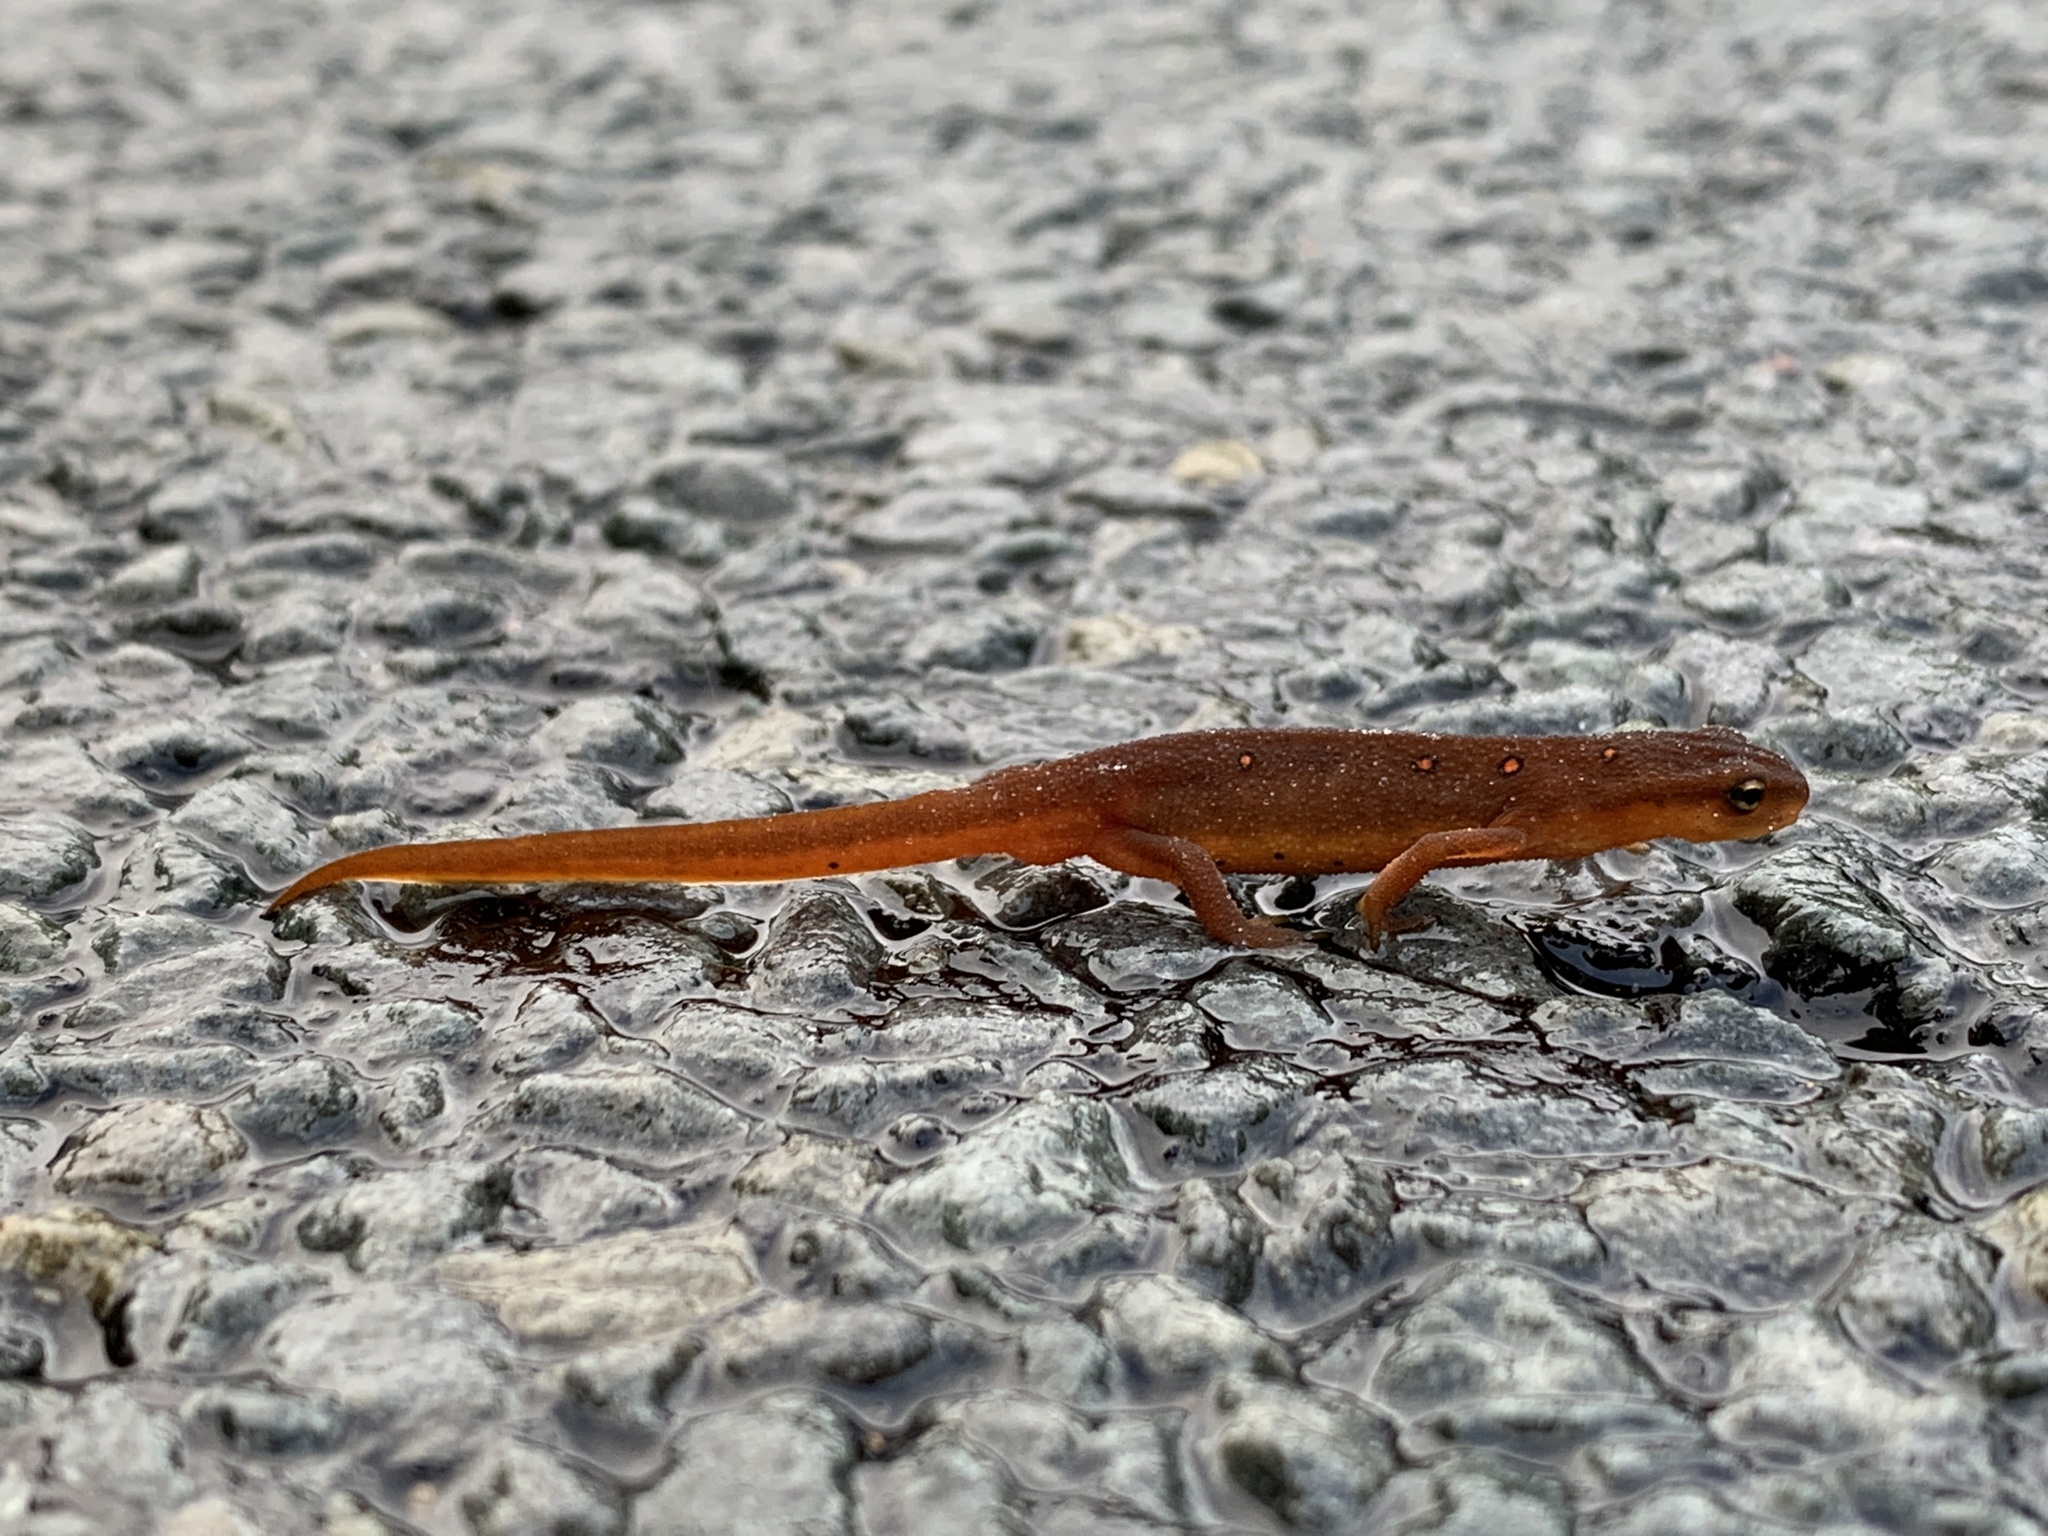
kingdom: Animalia
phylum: Chordata
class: Amphibia
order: Caudata
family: Salamandridae
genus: Notophthalmus
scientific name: Notophthalmus viridescens
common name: Eastern newt
